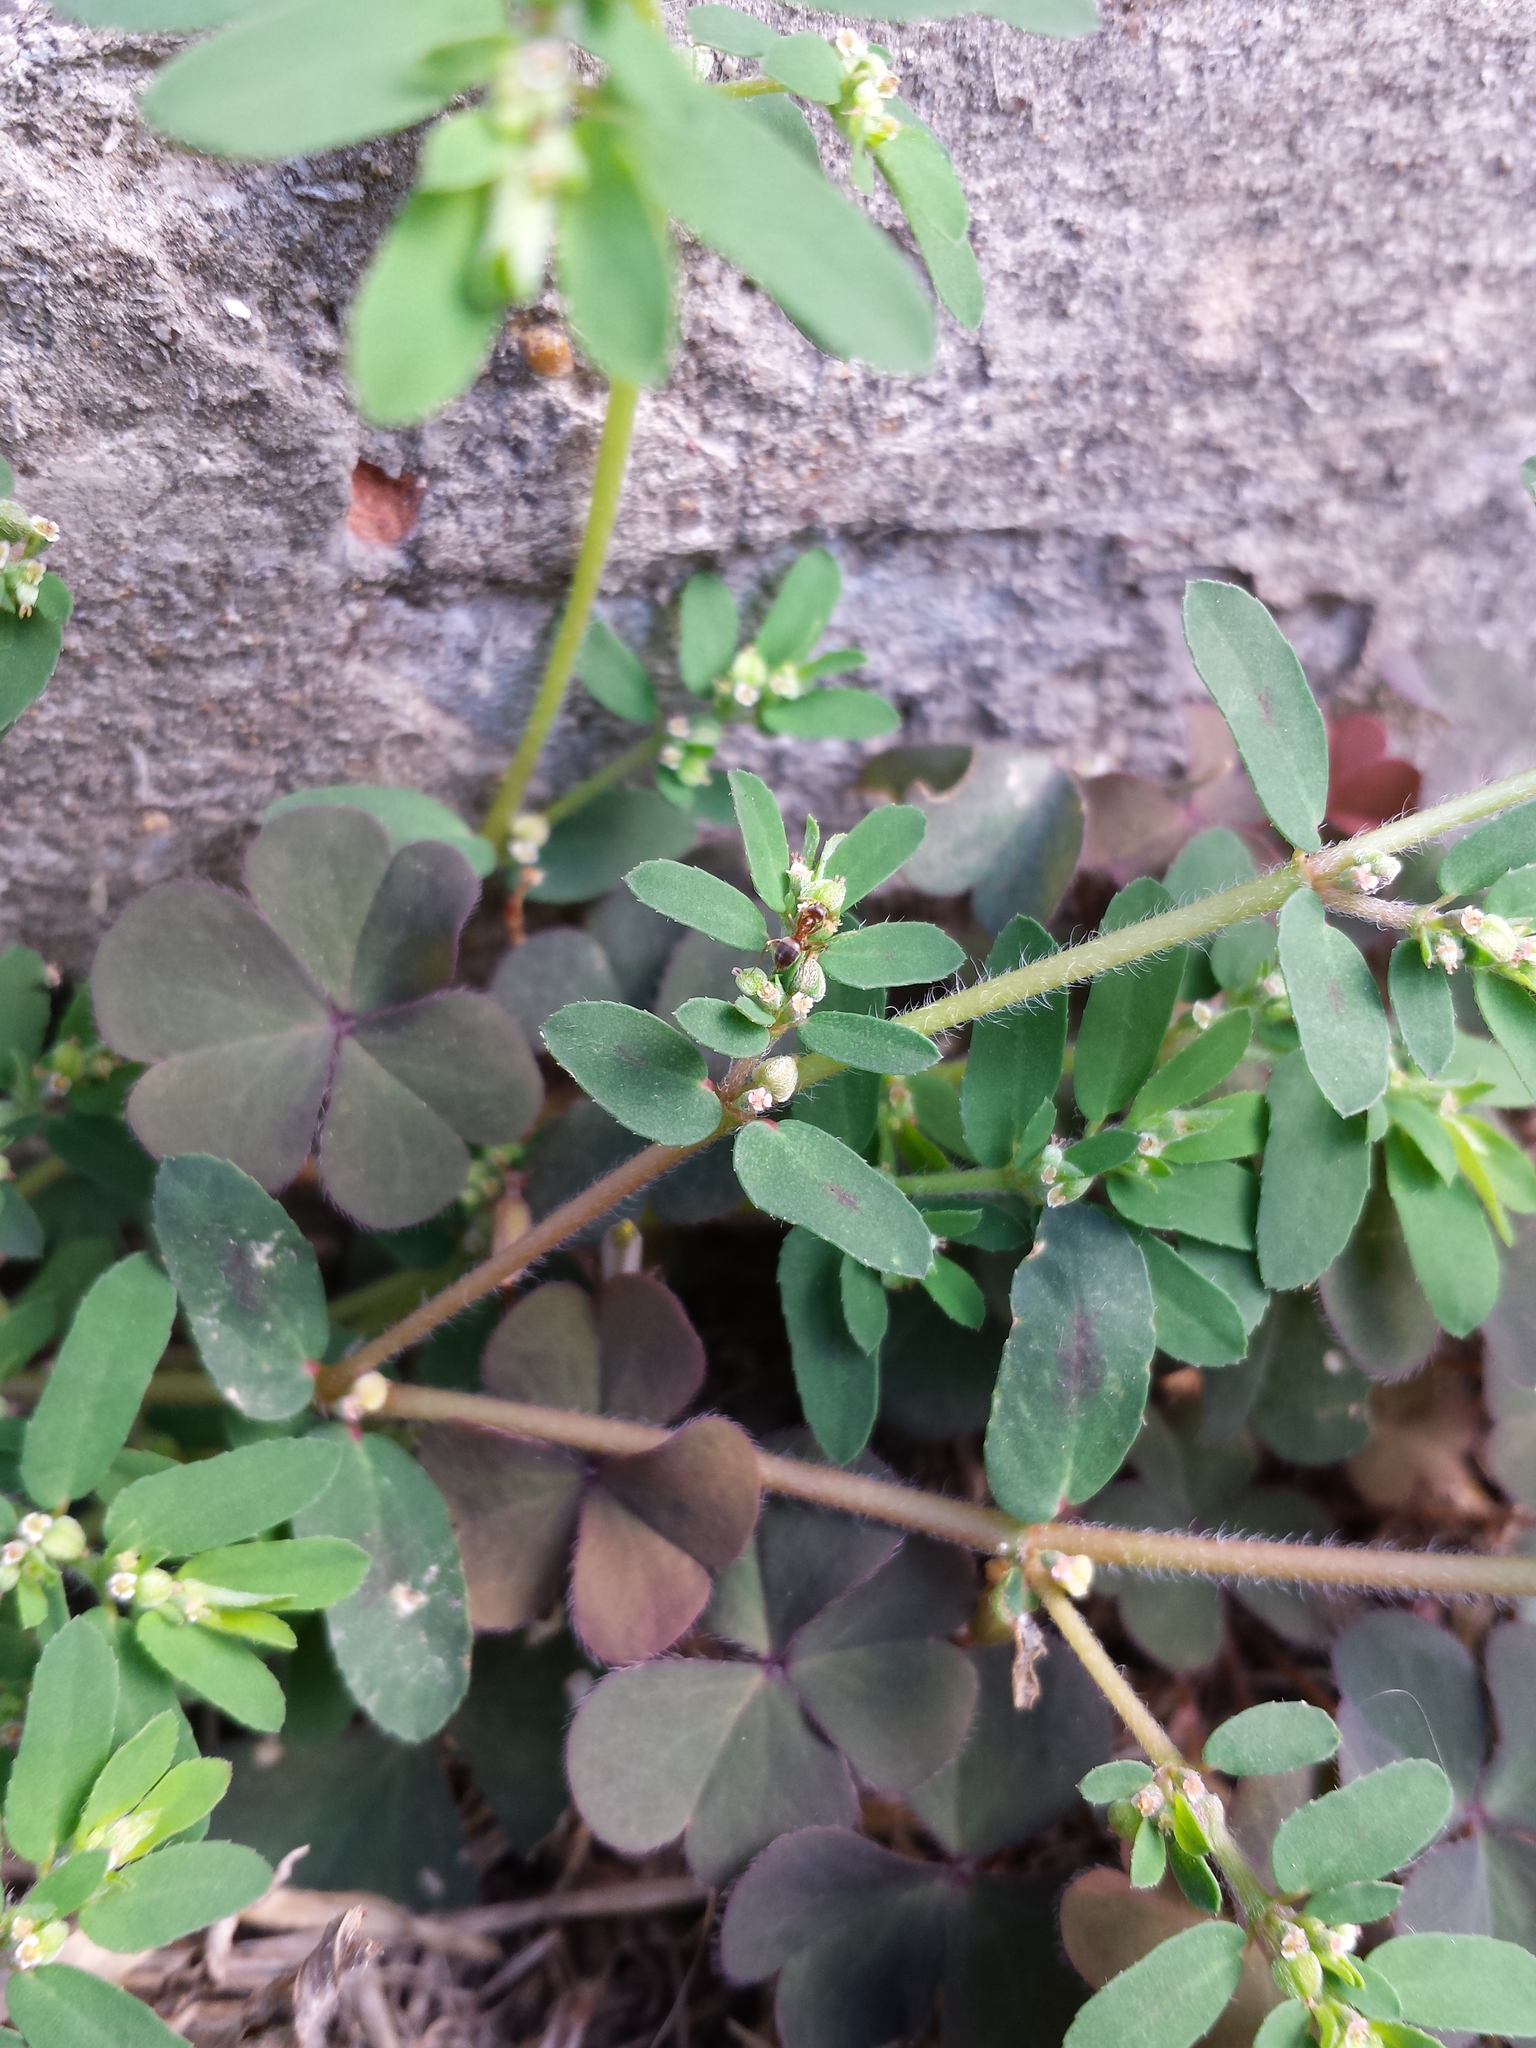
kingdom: Plantae
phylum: Tracheophyta
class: Magnoliopsida
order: Malpighiales
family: Euphorbiaceae
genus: Euphorbia
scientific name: Euphorbia maculata
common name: Spotted spurge
